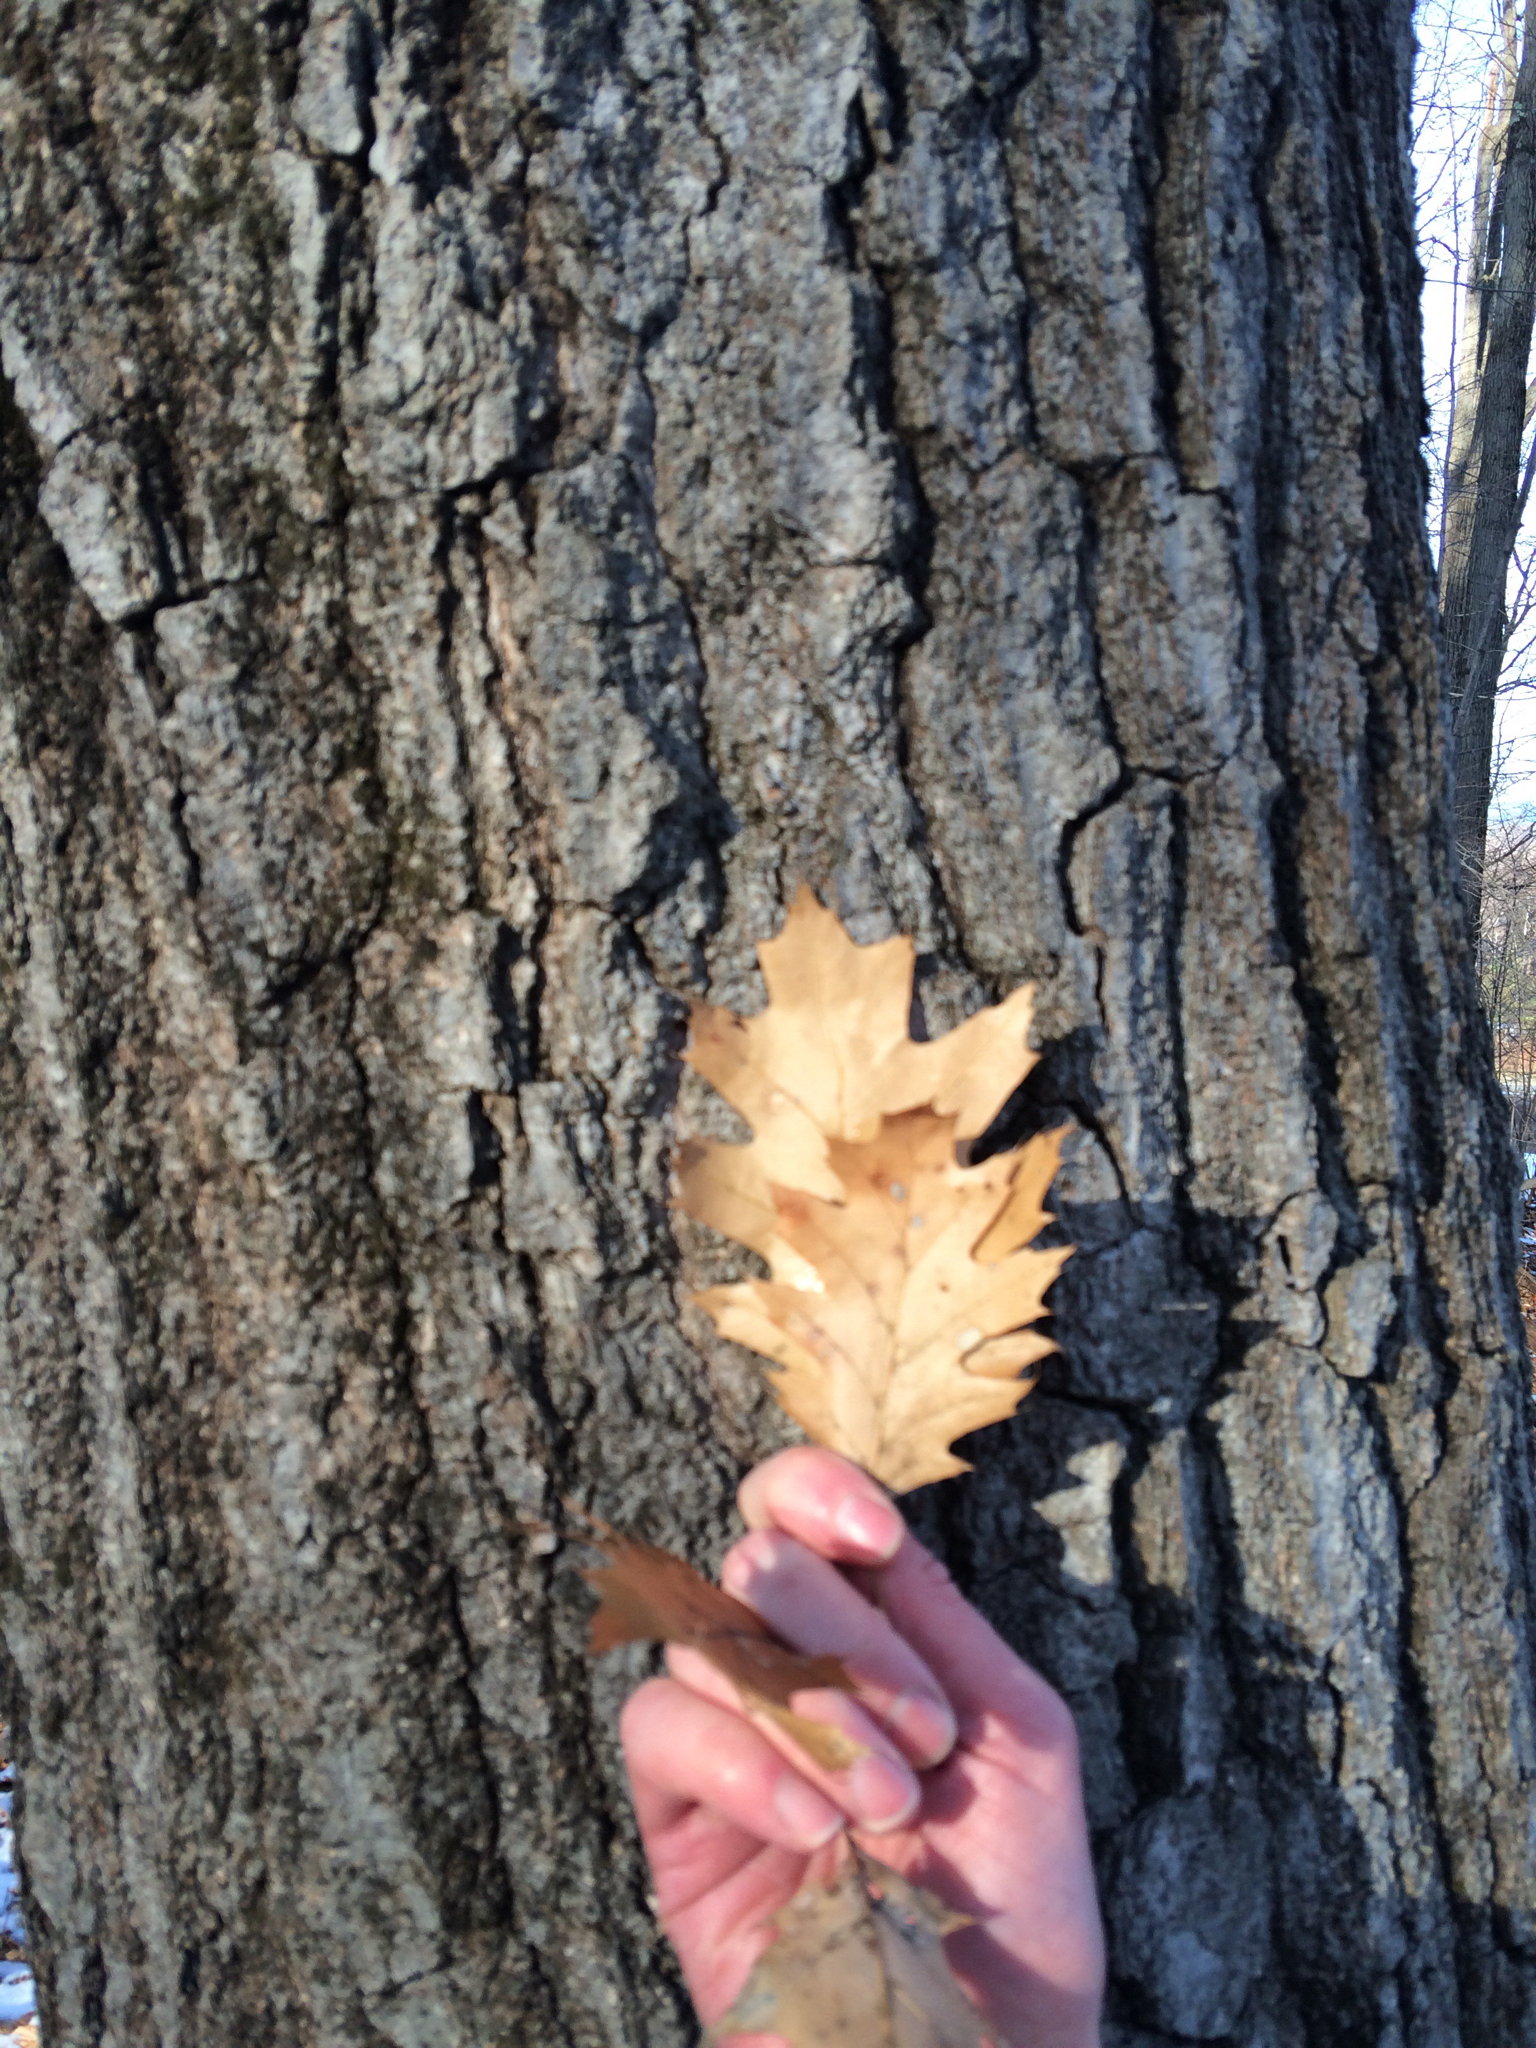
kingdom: Plantae
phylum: Tracheophyta
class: Magnoliopsida
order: Fagales
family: Fagaceae
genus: Quercus
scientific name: Quercus rubra
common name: Red oak
